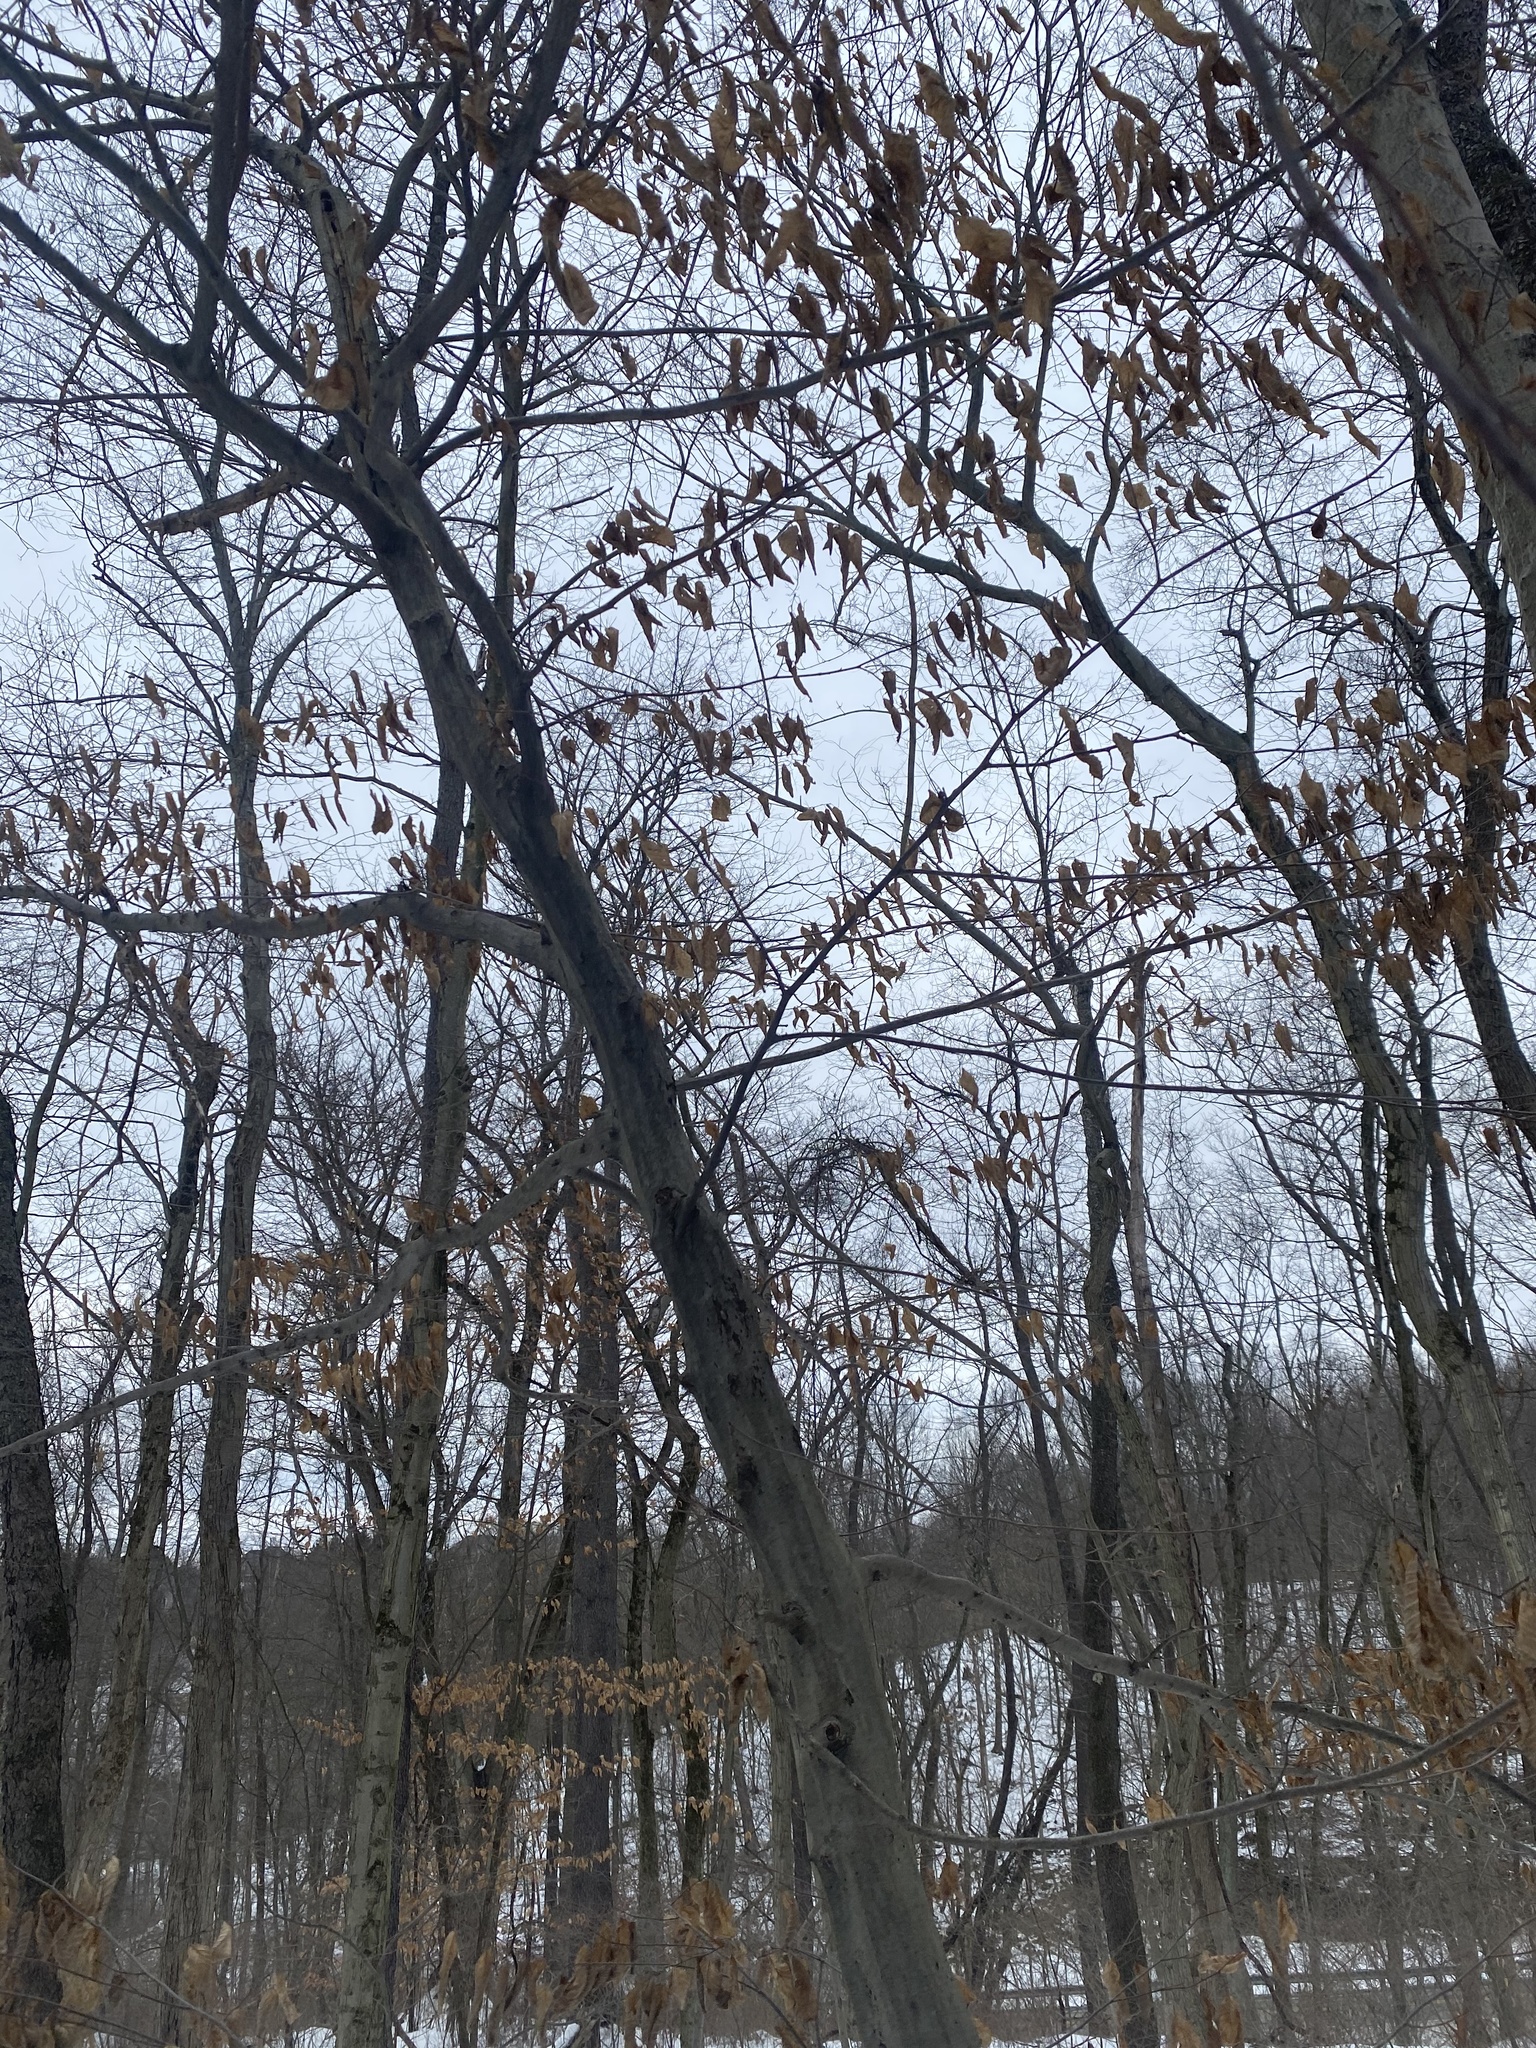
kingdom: Plantae
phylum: Tracheophyta
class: Magnoliopsida
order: Fagales
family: Betulaceae
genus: Carpinus
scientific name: Carpinus caroliniana
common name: American hornbeam
